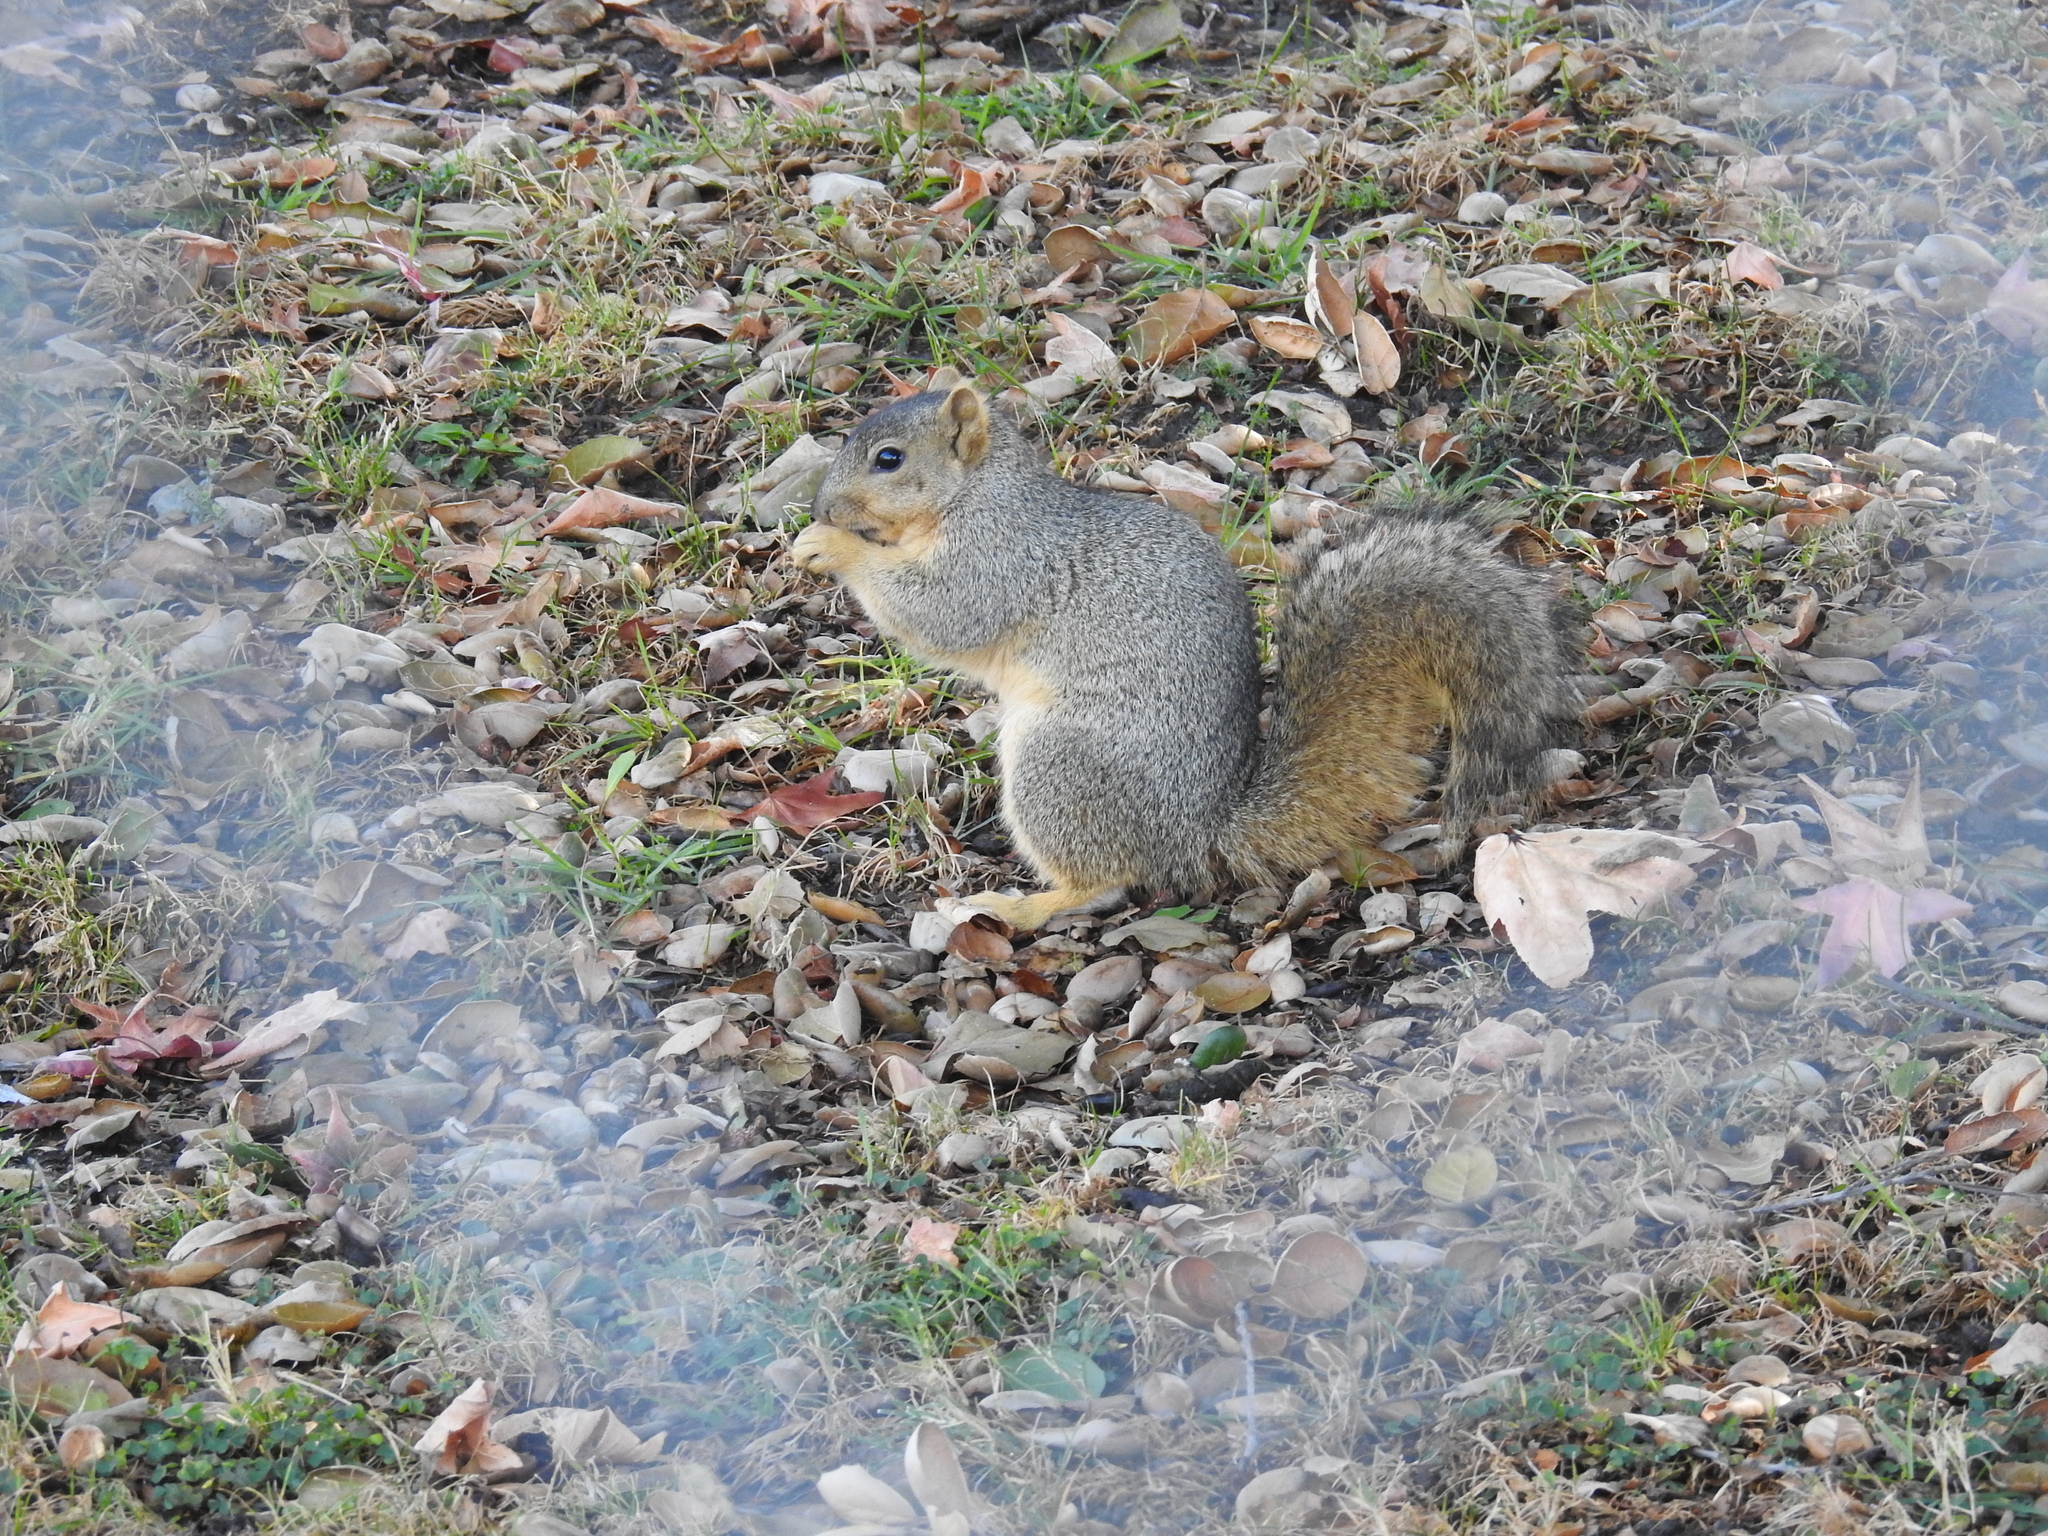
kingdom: Animalia
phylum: Chordata
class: Mammalia
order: Rodentia
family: Sciuridae
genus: Sciurus
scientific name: Sciurus niger
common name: Fox squirrel
